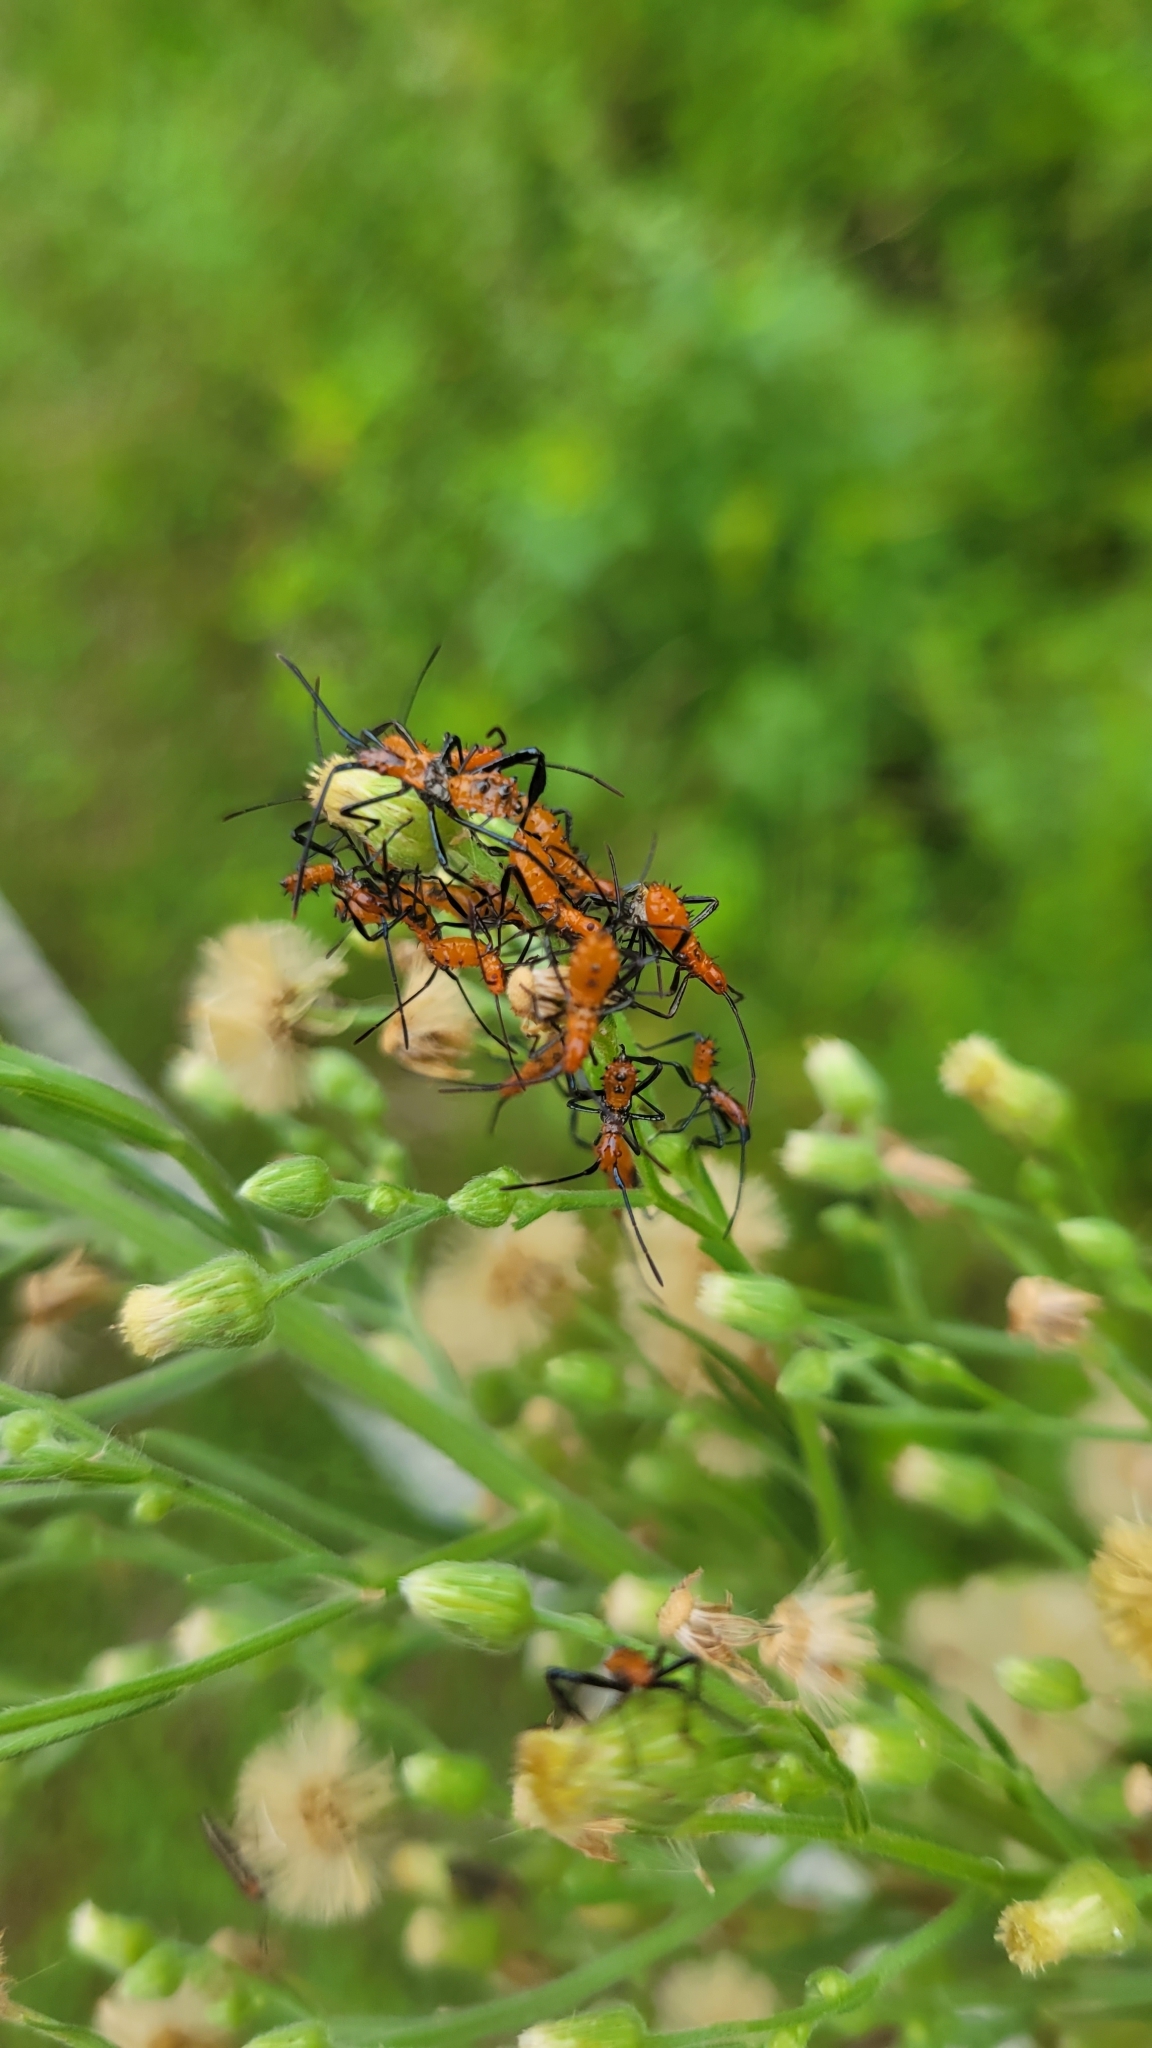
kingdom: Animalia
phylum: Arthropoda
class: Insecta
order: Hemiptera
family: Coreidae
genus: Leptoglossus
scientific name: Leptoglossus phyllopus
